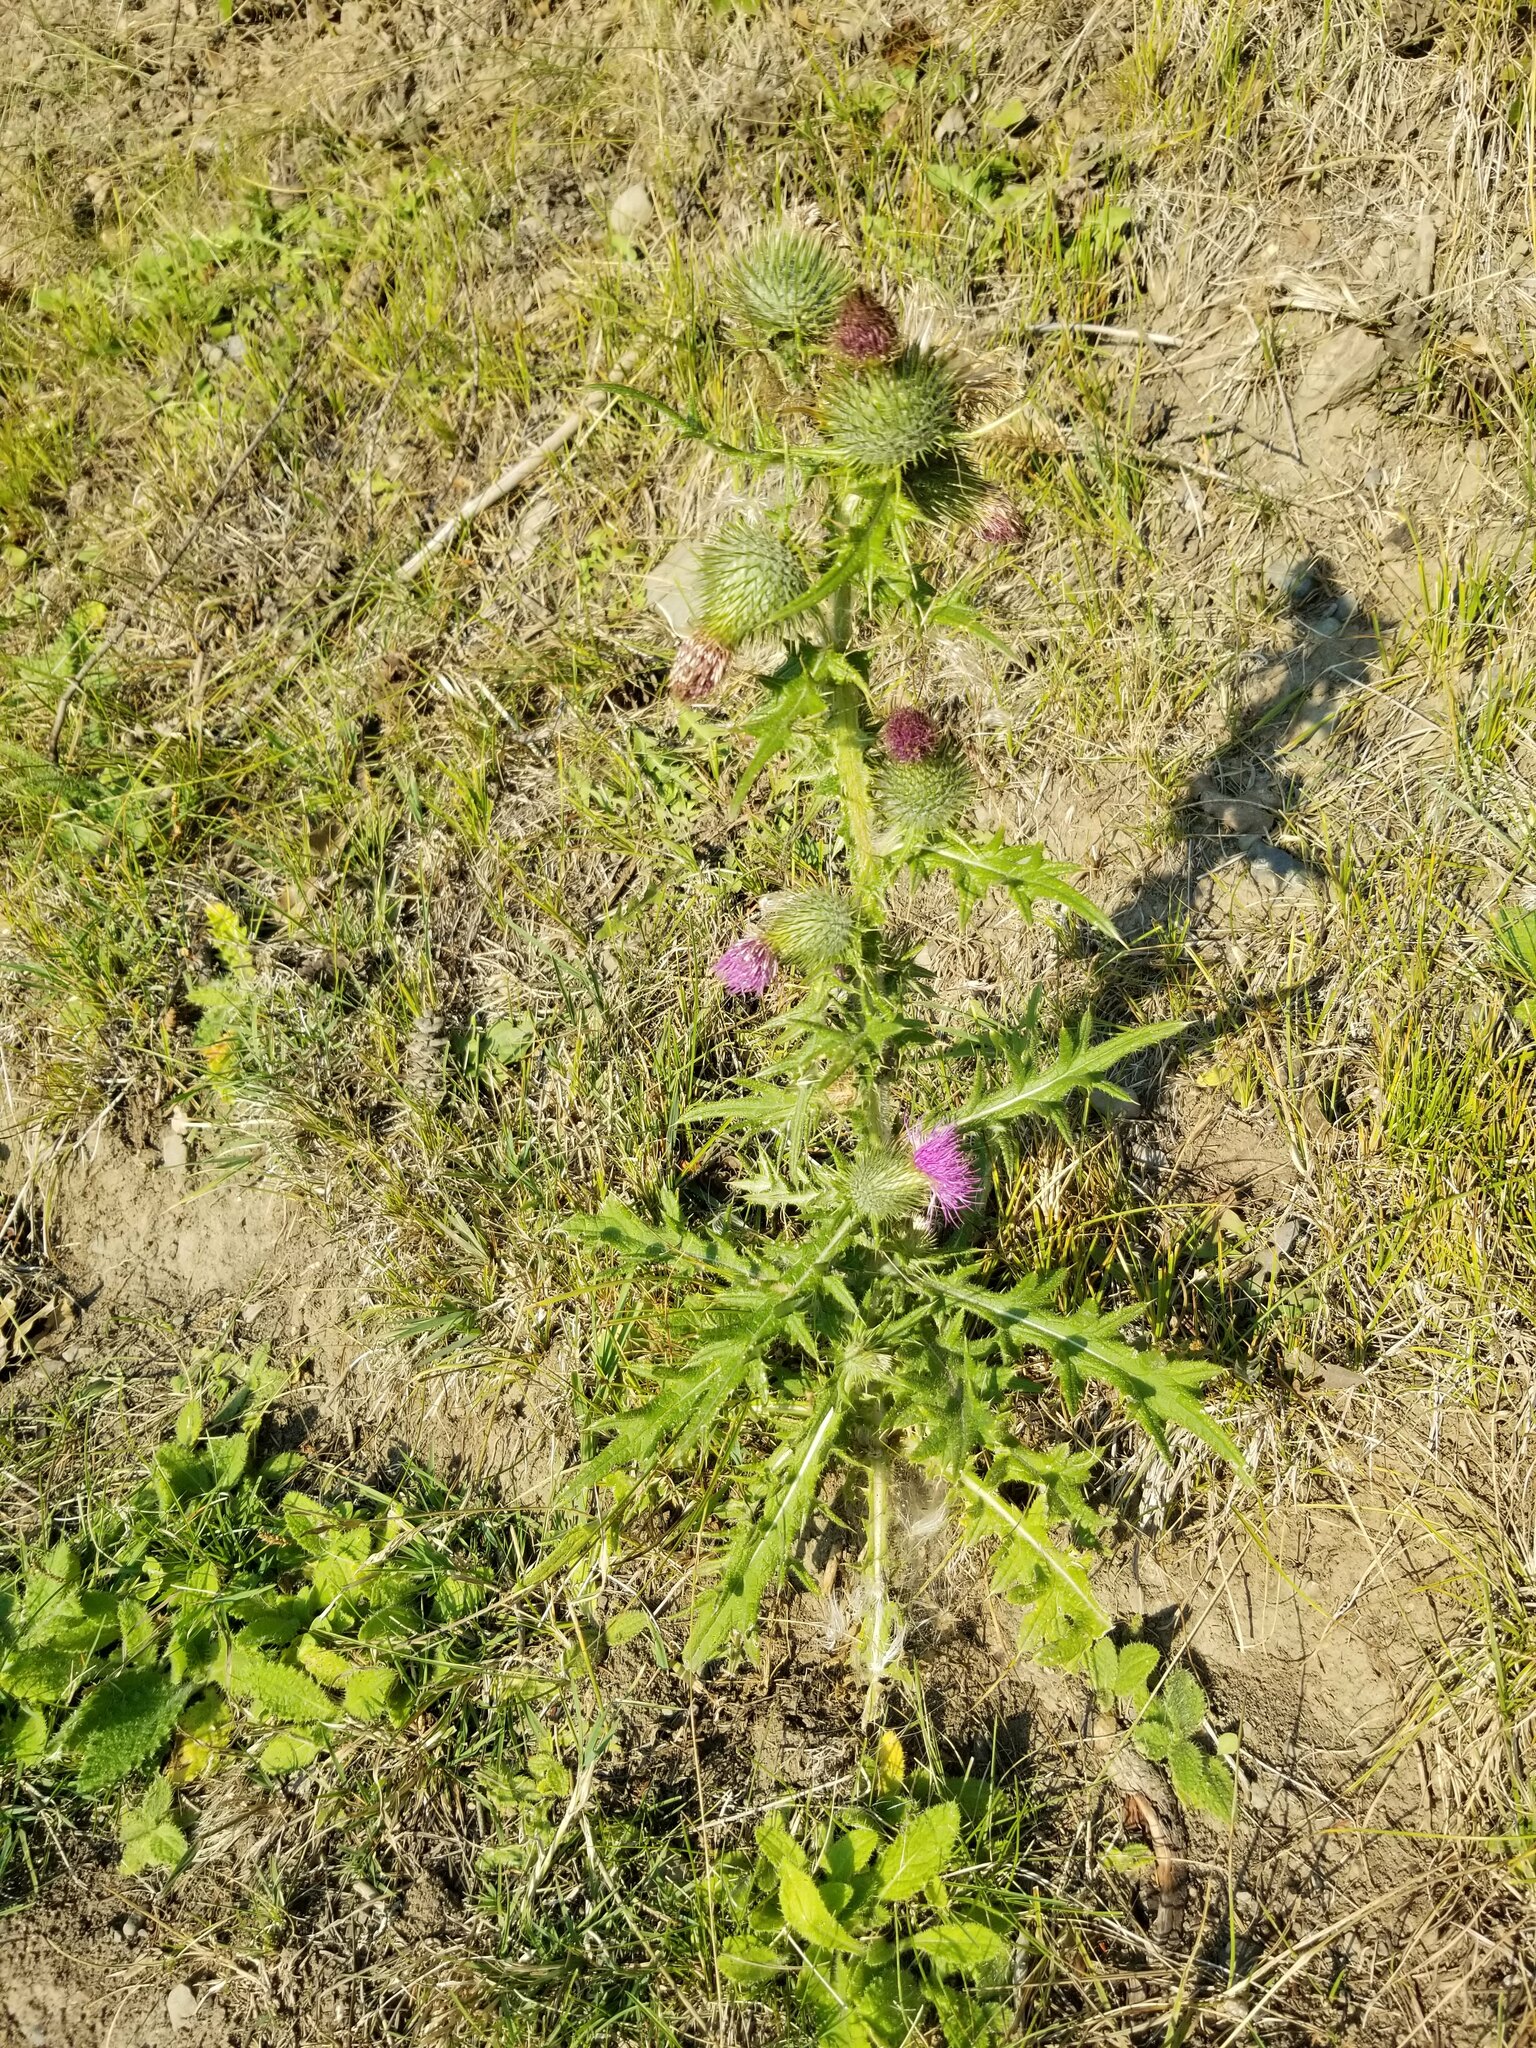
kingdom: Plantae
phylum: Tracheophyta
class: Magnoliopsida
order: Asterales
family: Asteraceae
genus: Cirsium
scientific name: Cirsium vulgare
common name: Bull thistle
